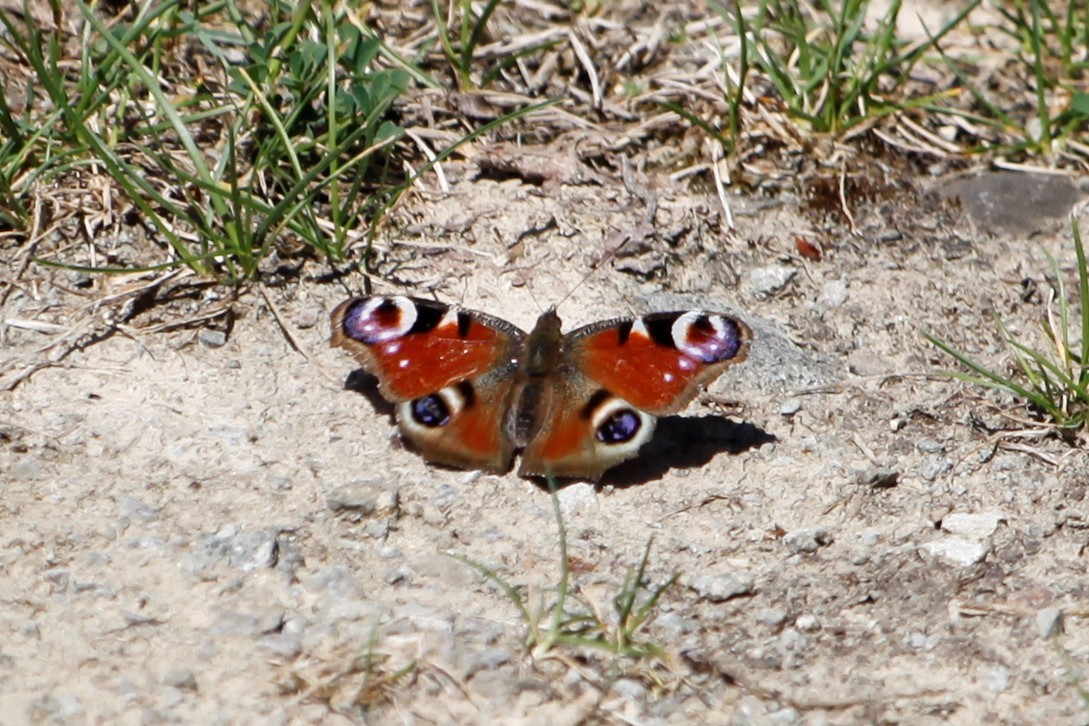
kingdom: Animalia
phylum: Arthropoda
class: Insecta
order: Lepidoptera
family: Nymphalidae
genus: Aglais
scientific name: Aglais io
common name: Peacock
